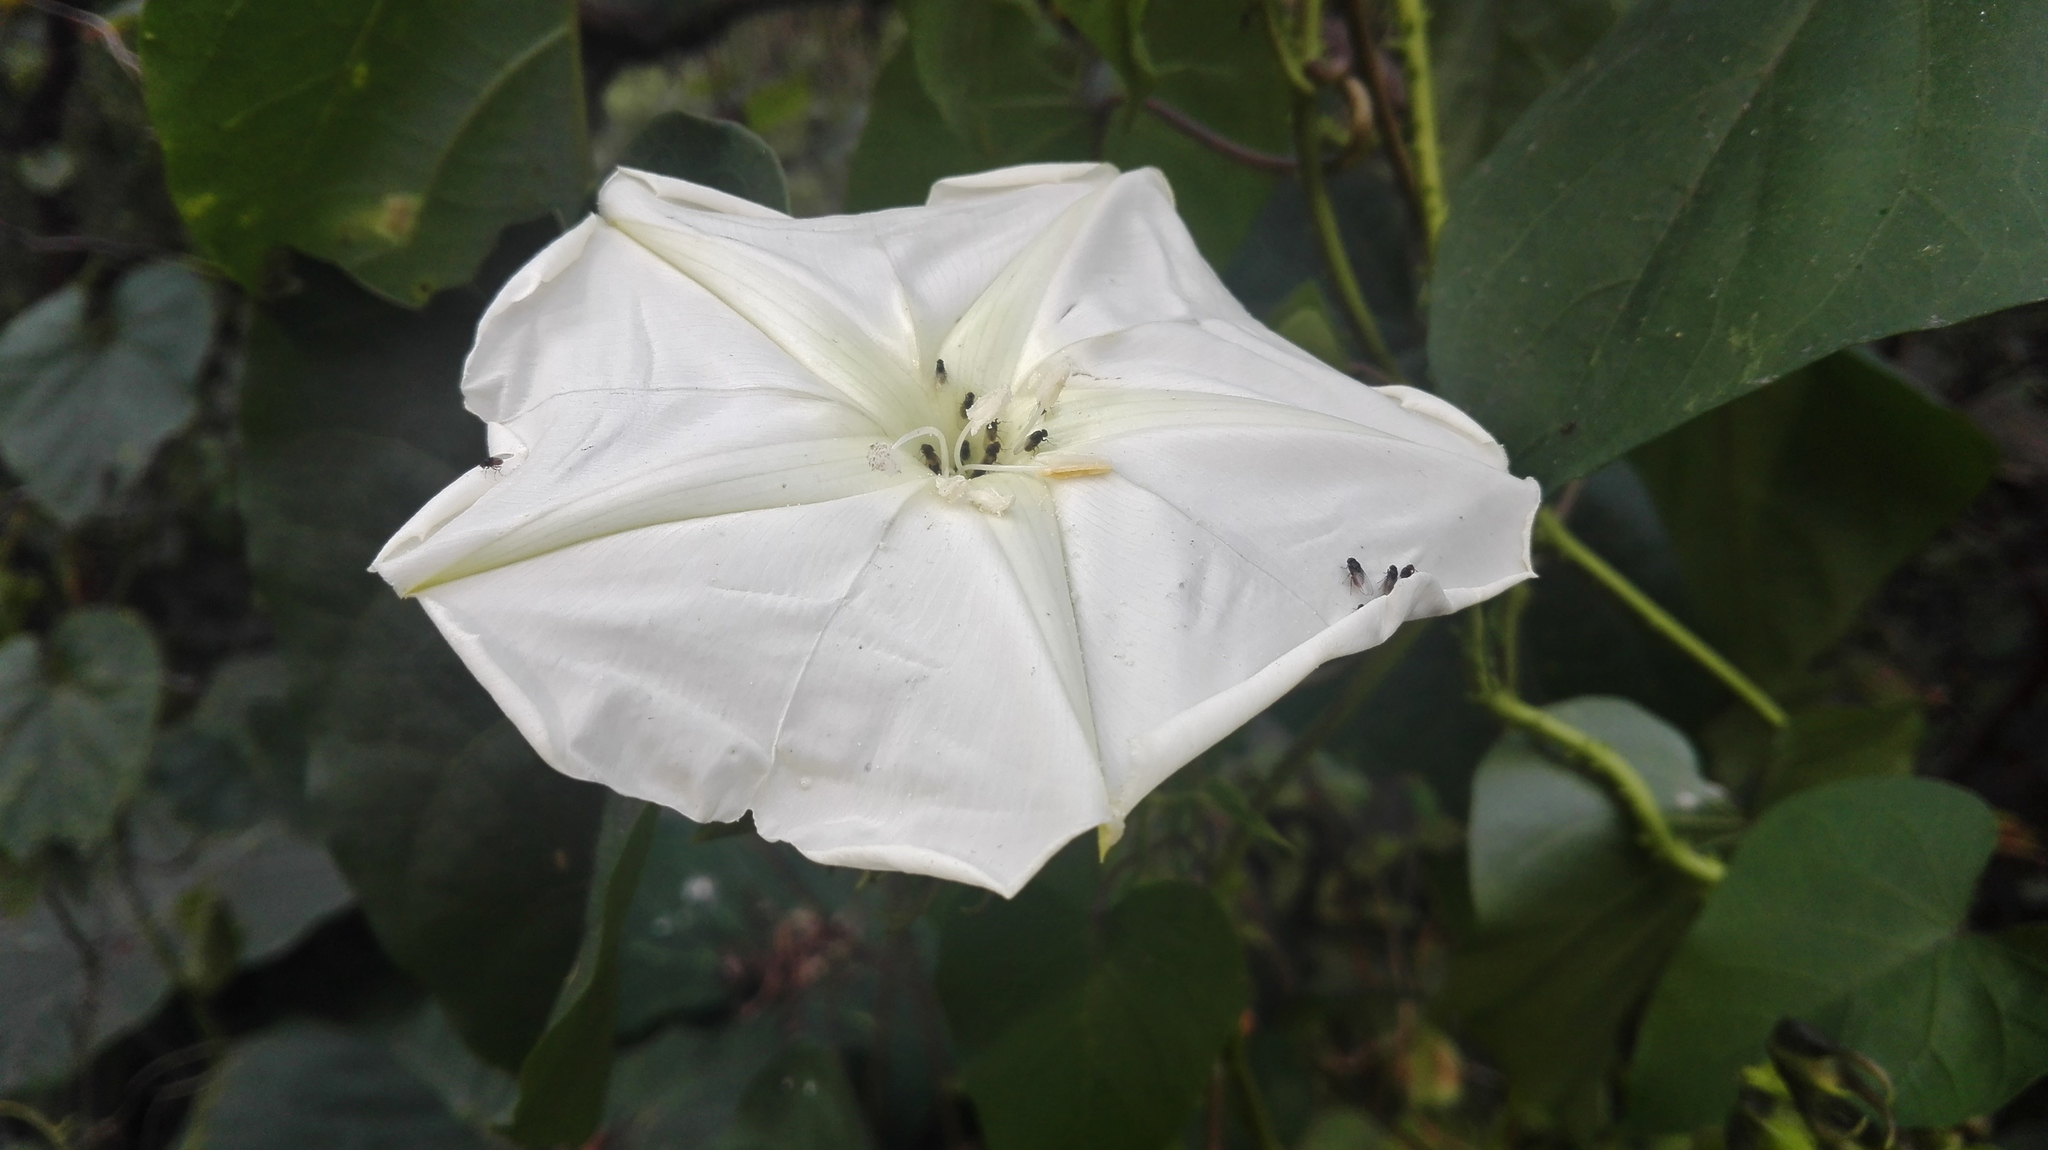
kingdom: Plantae
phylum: Tracheophyta
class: Magnoliopsida
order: Solanales
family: Convolvulaceae
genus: Ipomoea
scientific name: Ipomoea alba
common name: Moonflower
